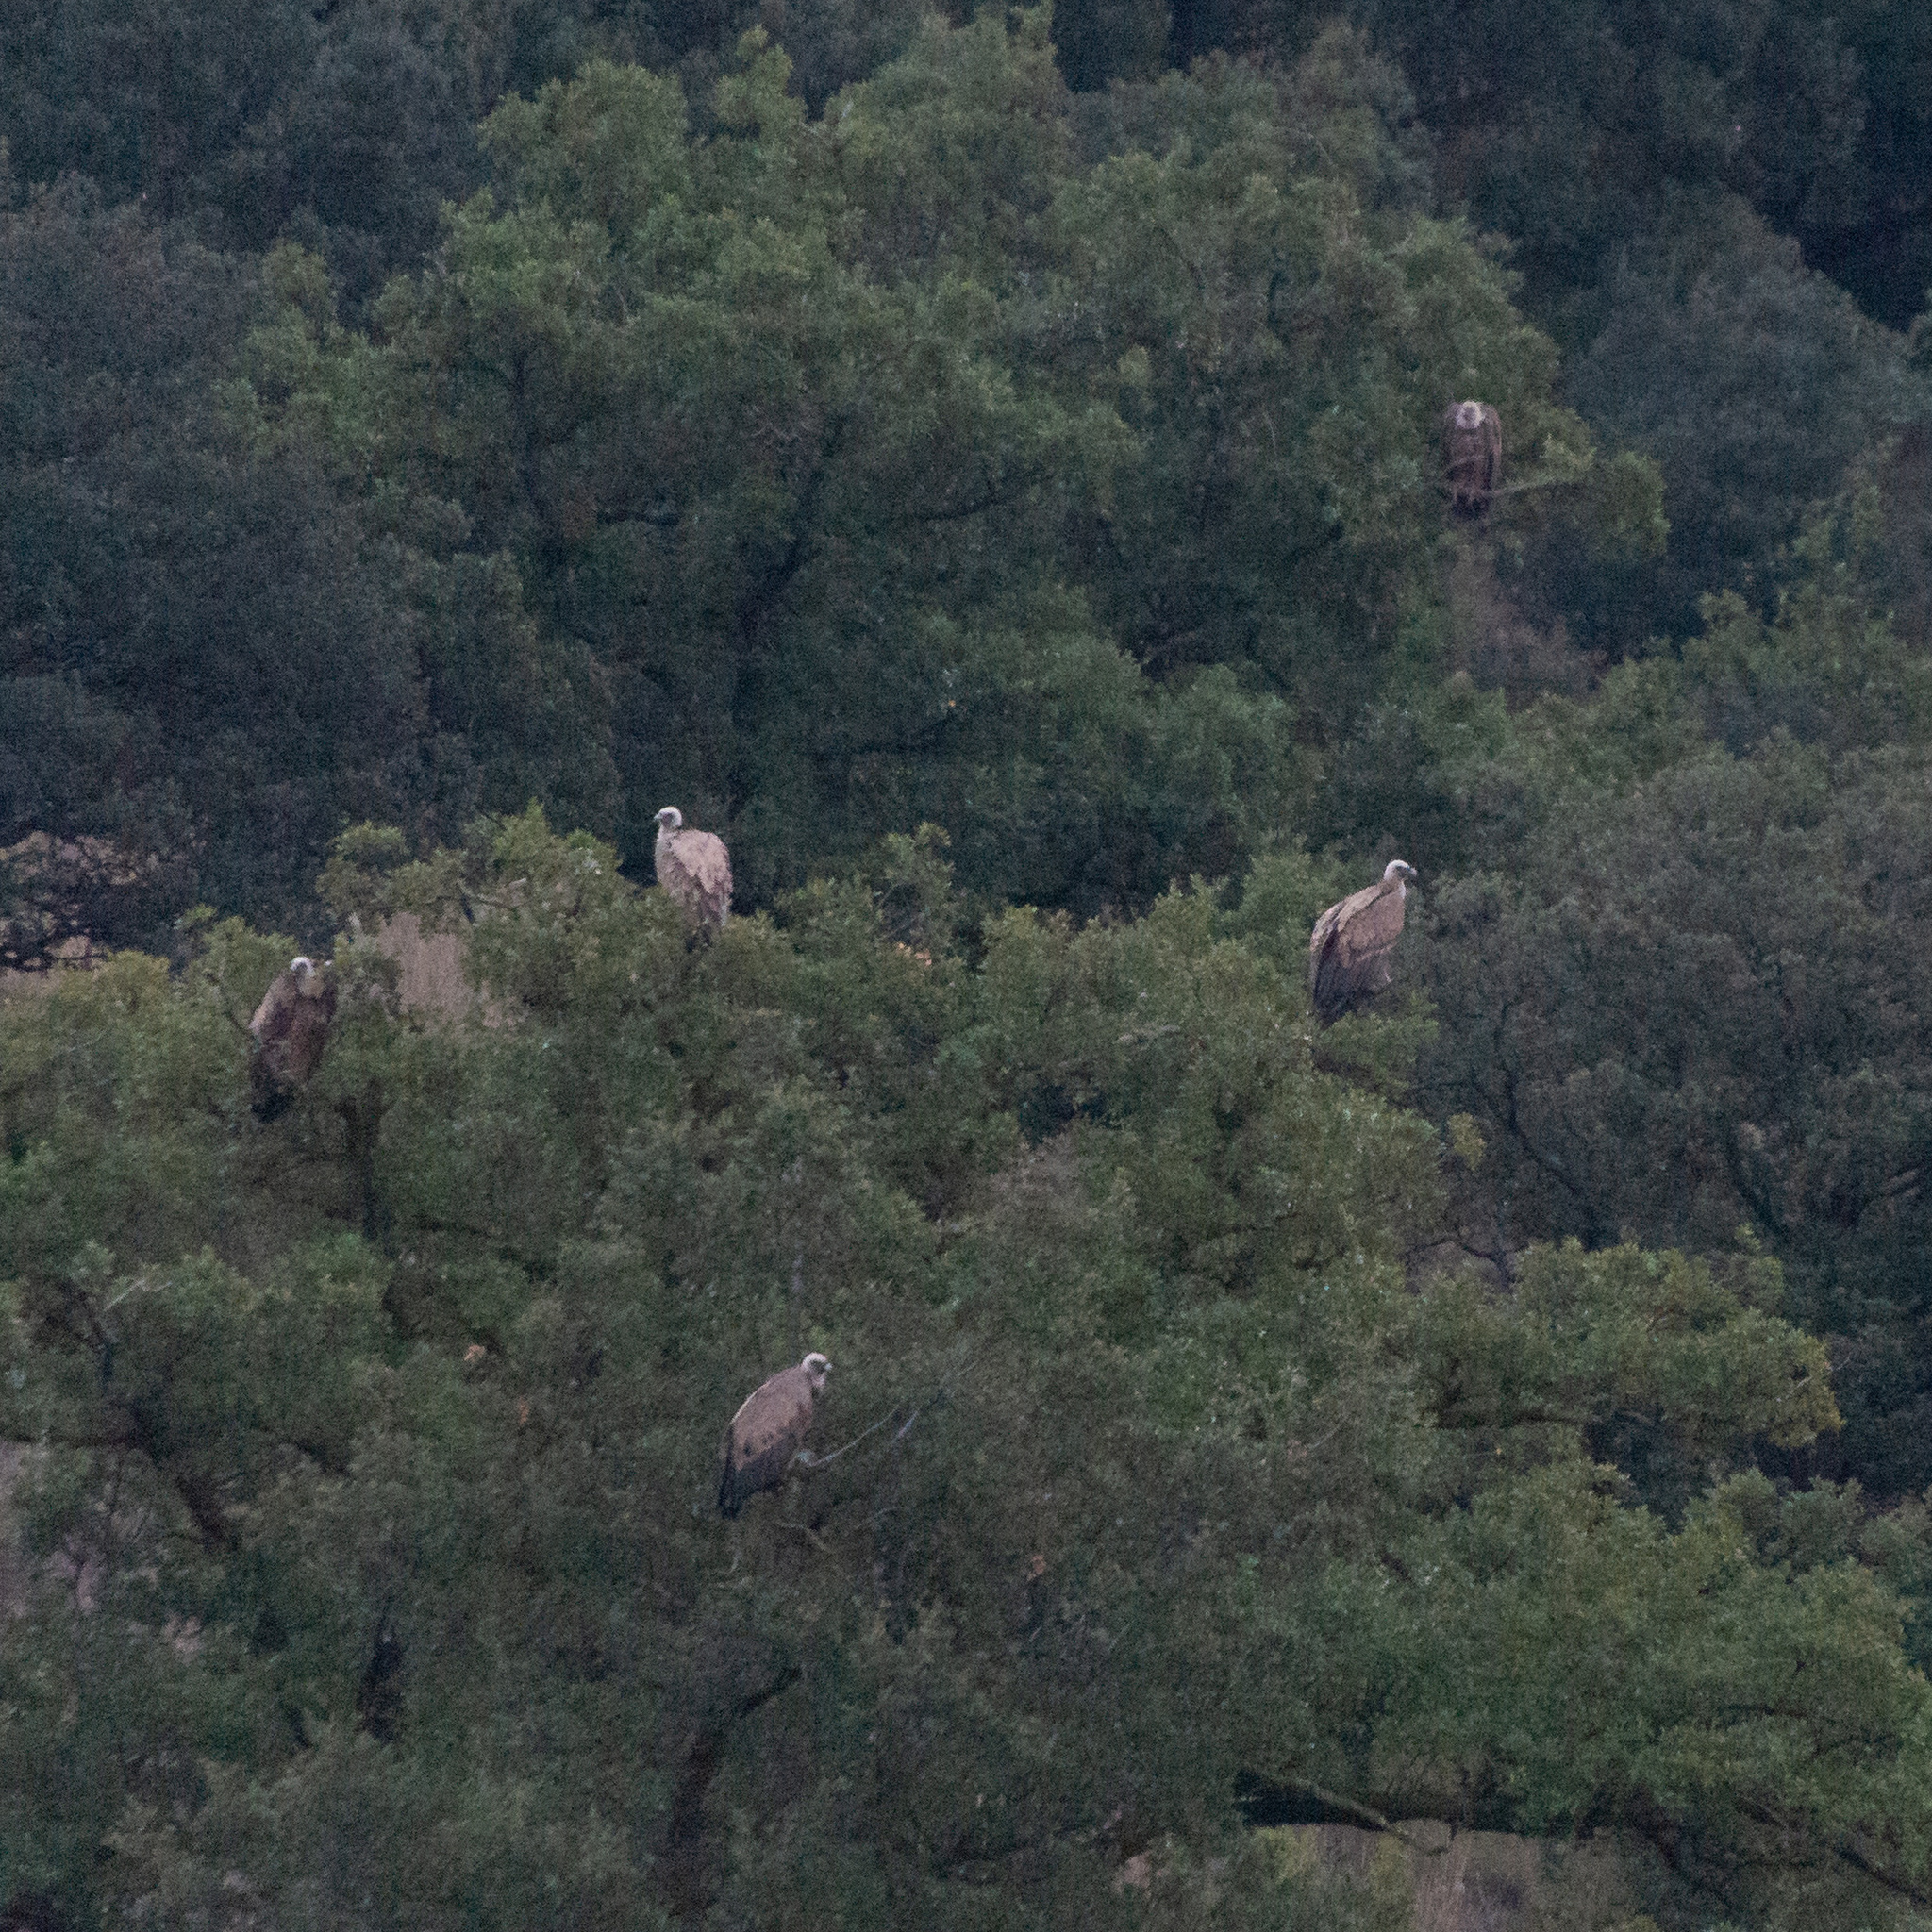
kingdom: Animalia
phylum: Chordata
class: Aves
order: Accipitriformes
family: Accipitridae
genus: Gyps
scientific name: Gyps fulvus
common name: Griffon vulture
